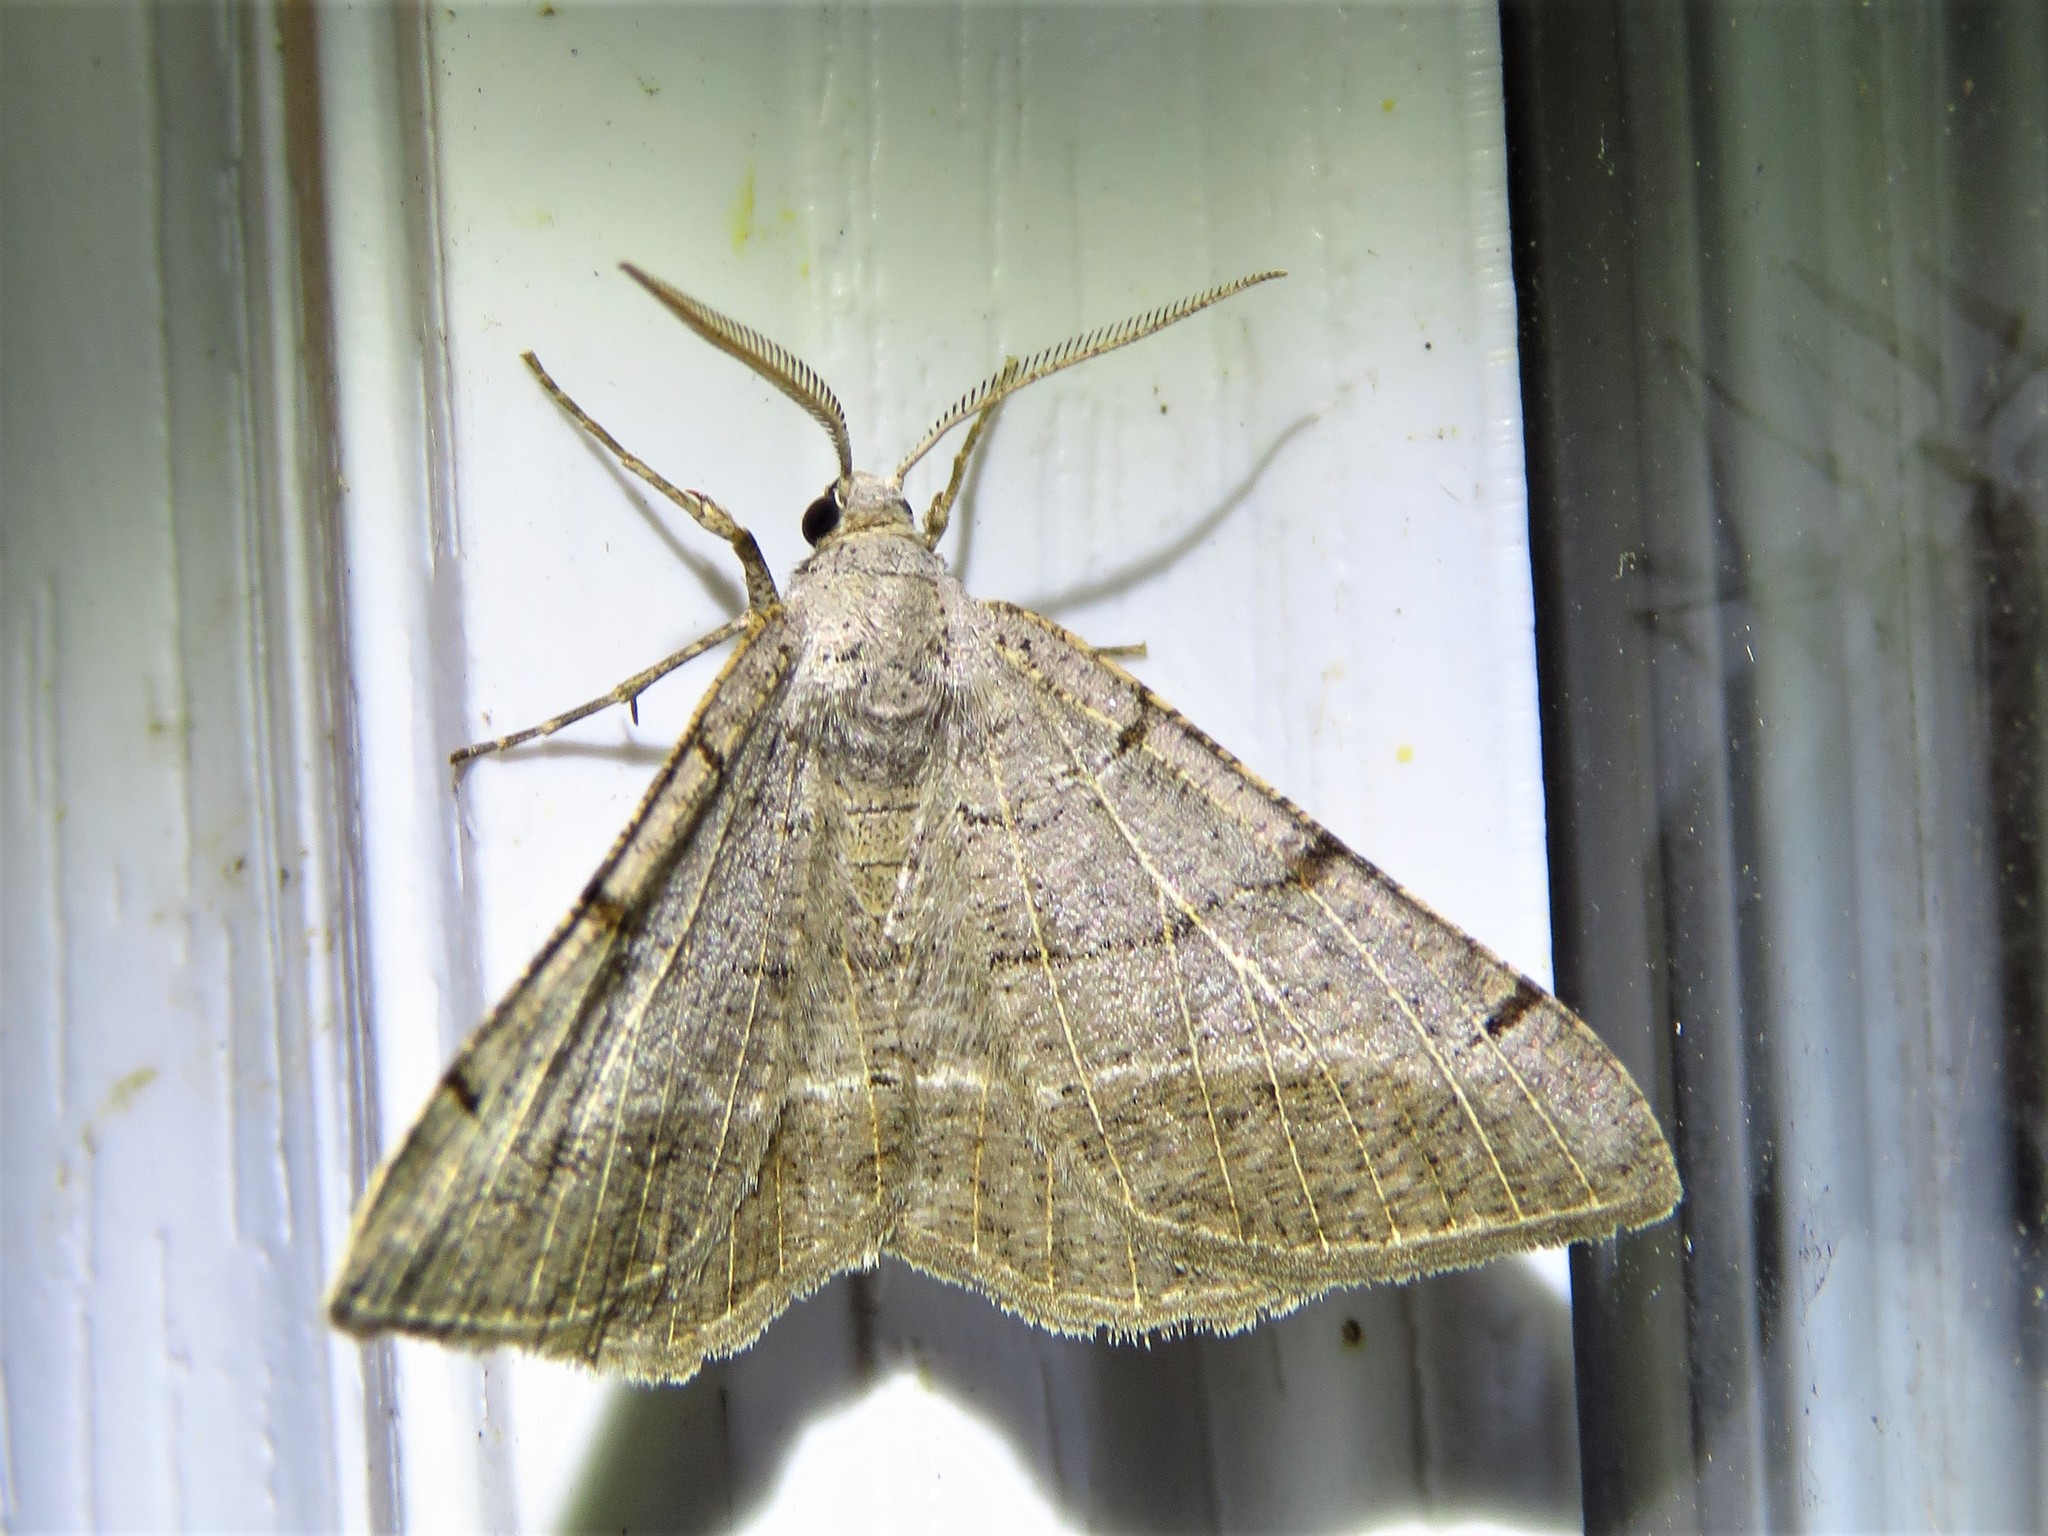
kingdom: Animalia
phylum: Arthropoda
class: Insecta
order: Lepidoptera
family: Geometridae
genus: Isturgia
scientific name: Isturgia dislocaria
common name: Pale-viened enconista
